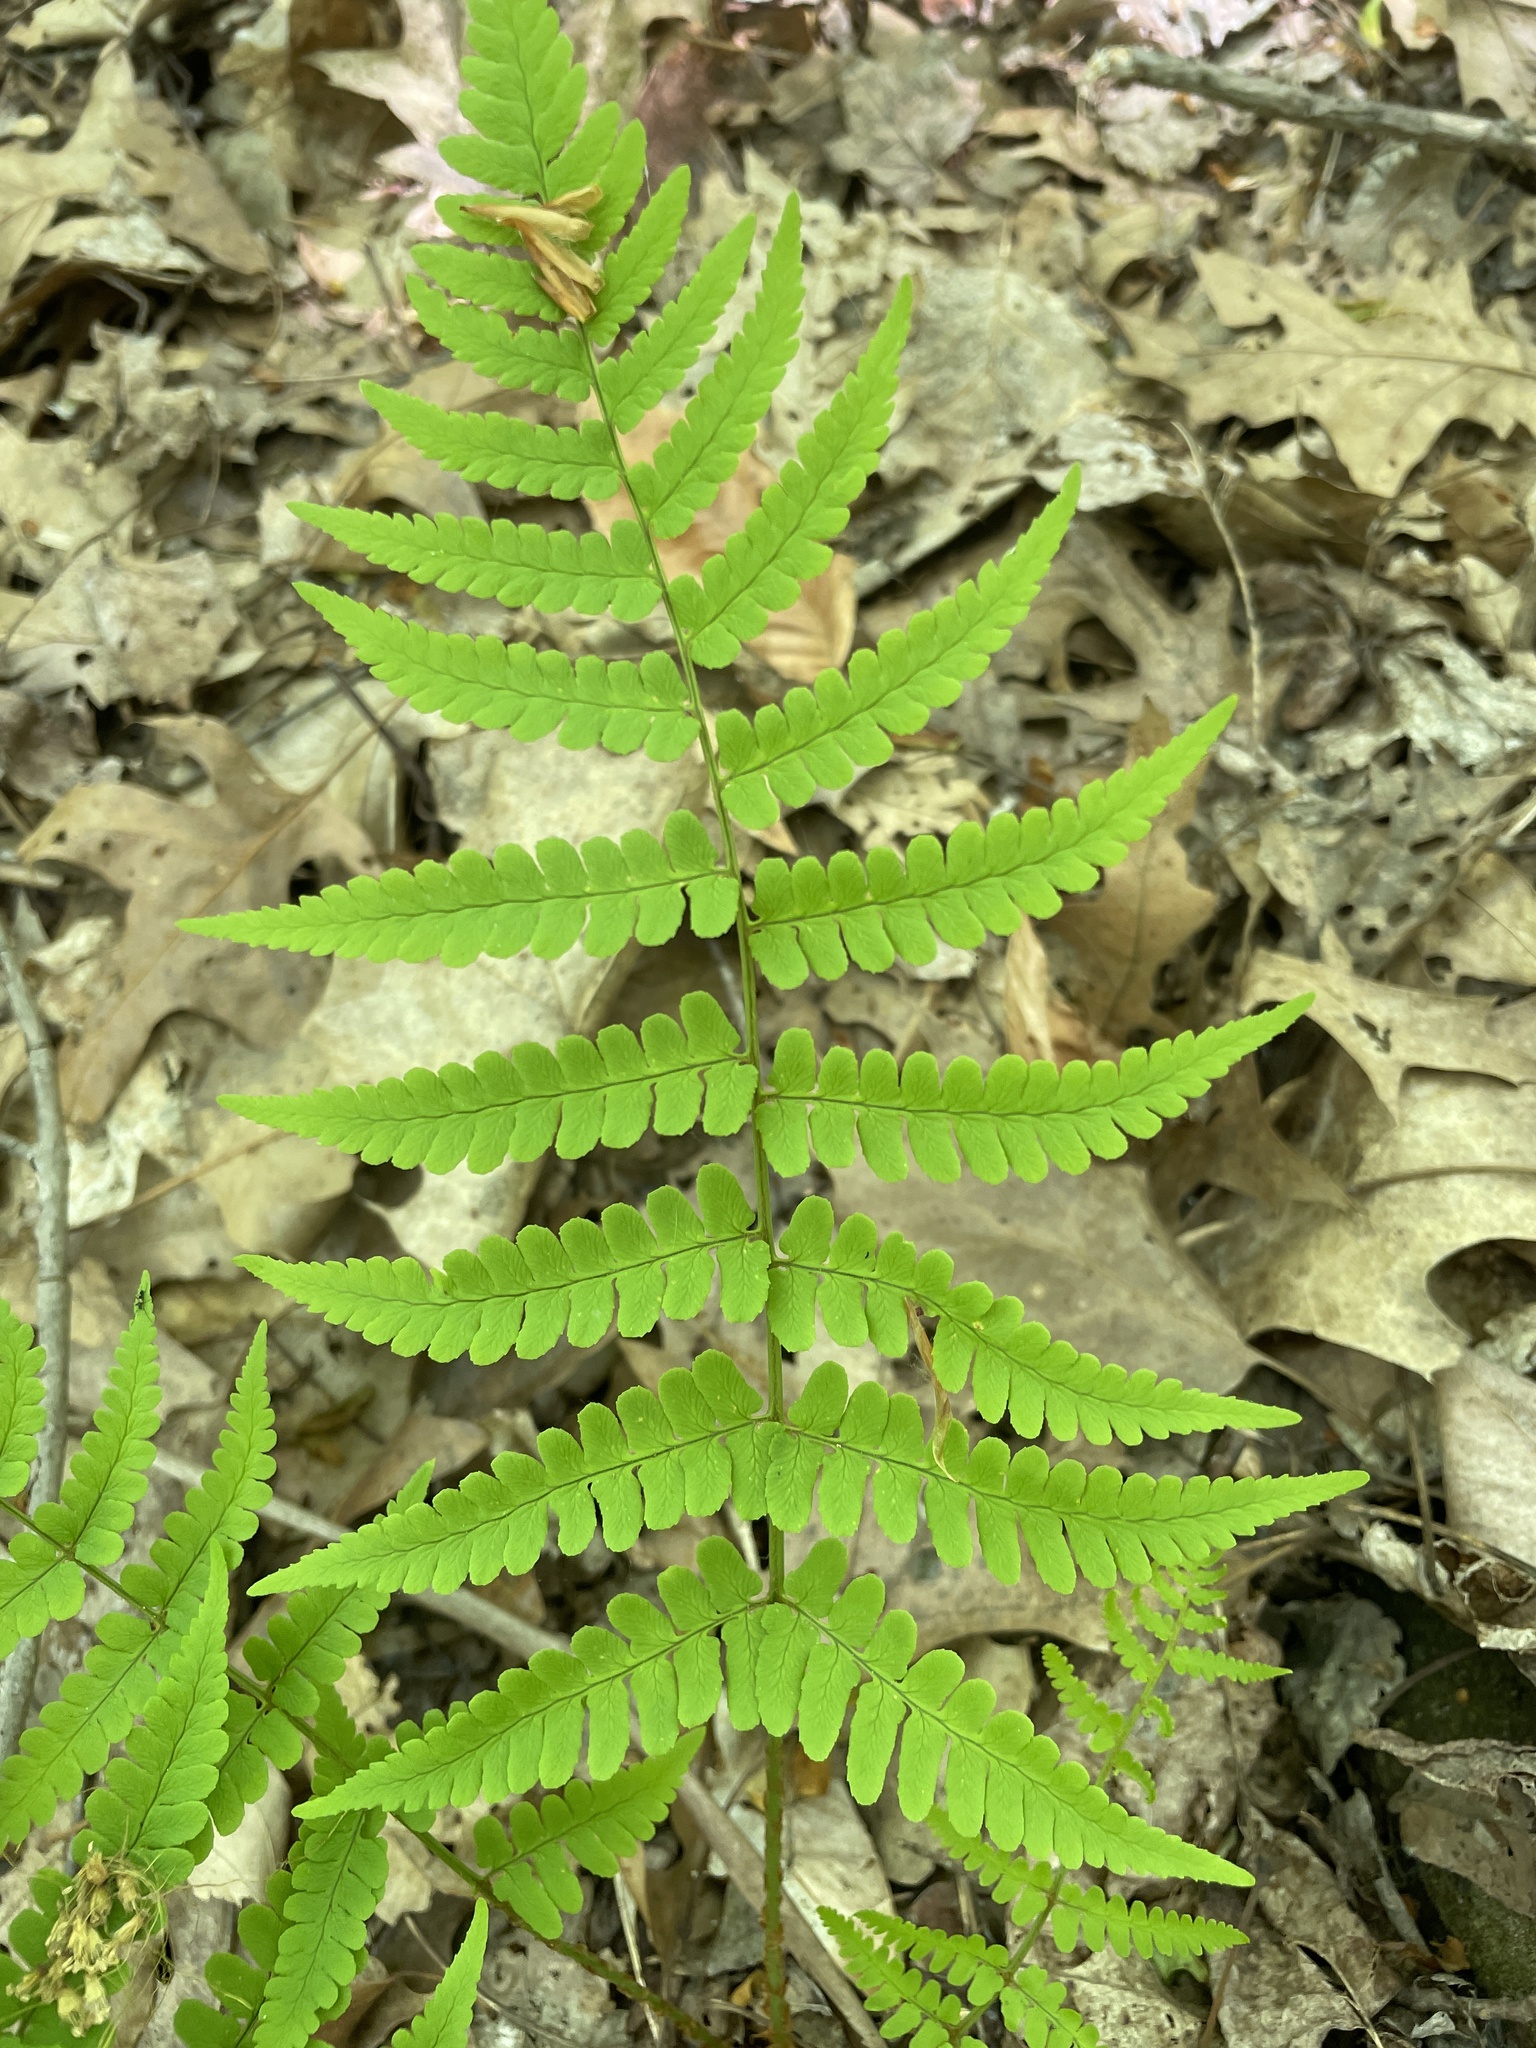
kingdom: Plantae
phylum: Tracheophyta
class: Polypodiopsida
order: Polypodiales
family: Dryopteridaceae
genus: Dryopteris
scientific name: Dryopteris marginalis
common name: Marginal wood fern
